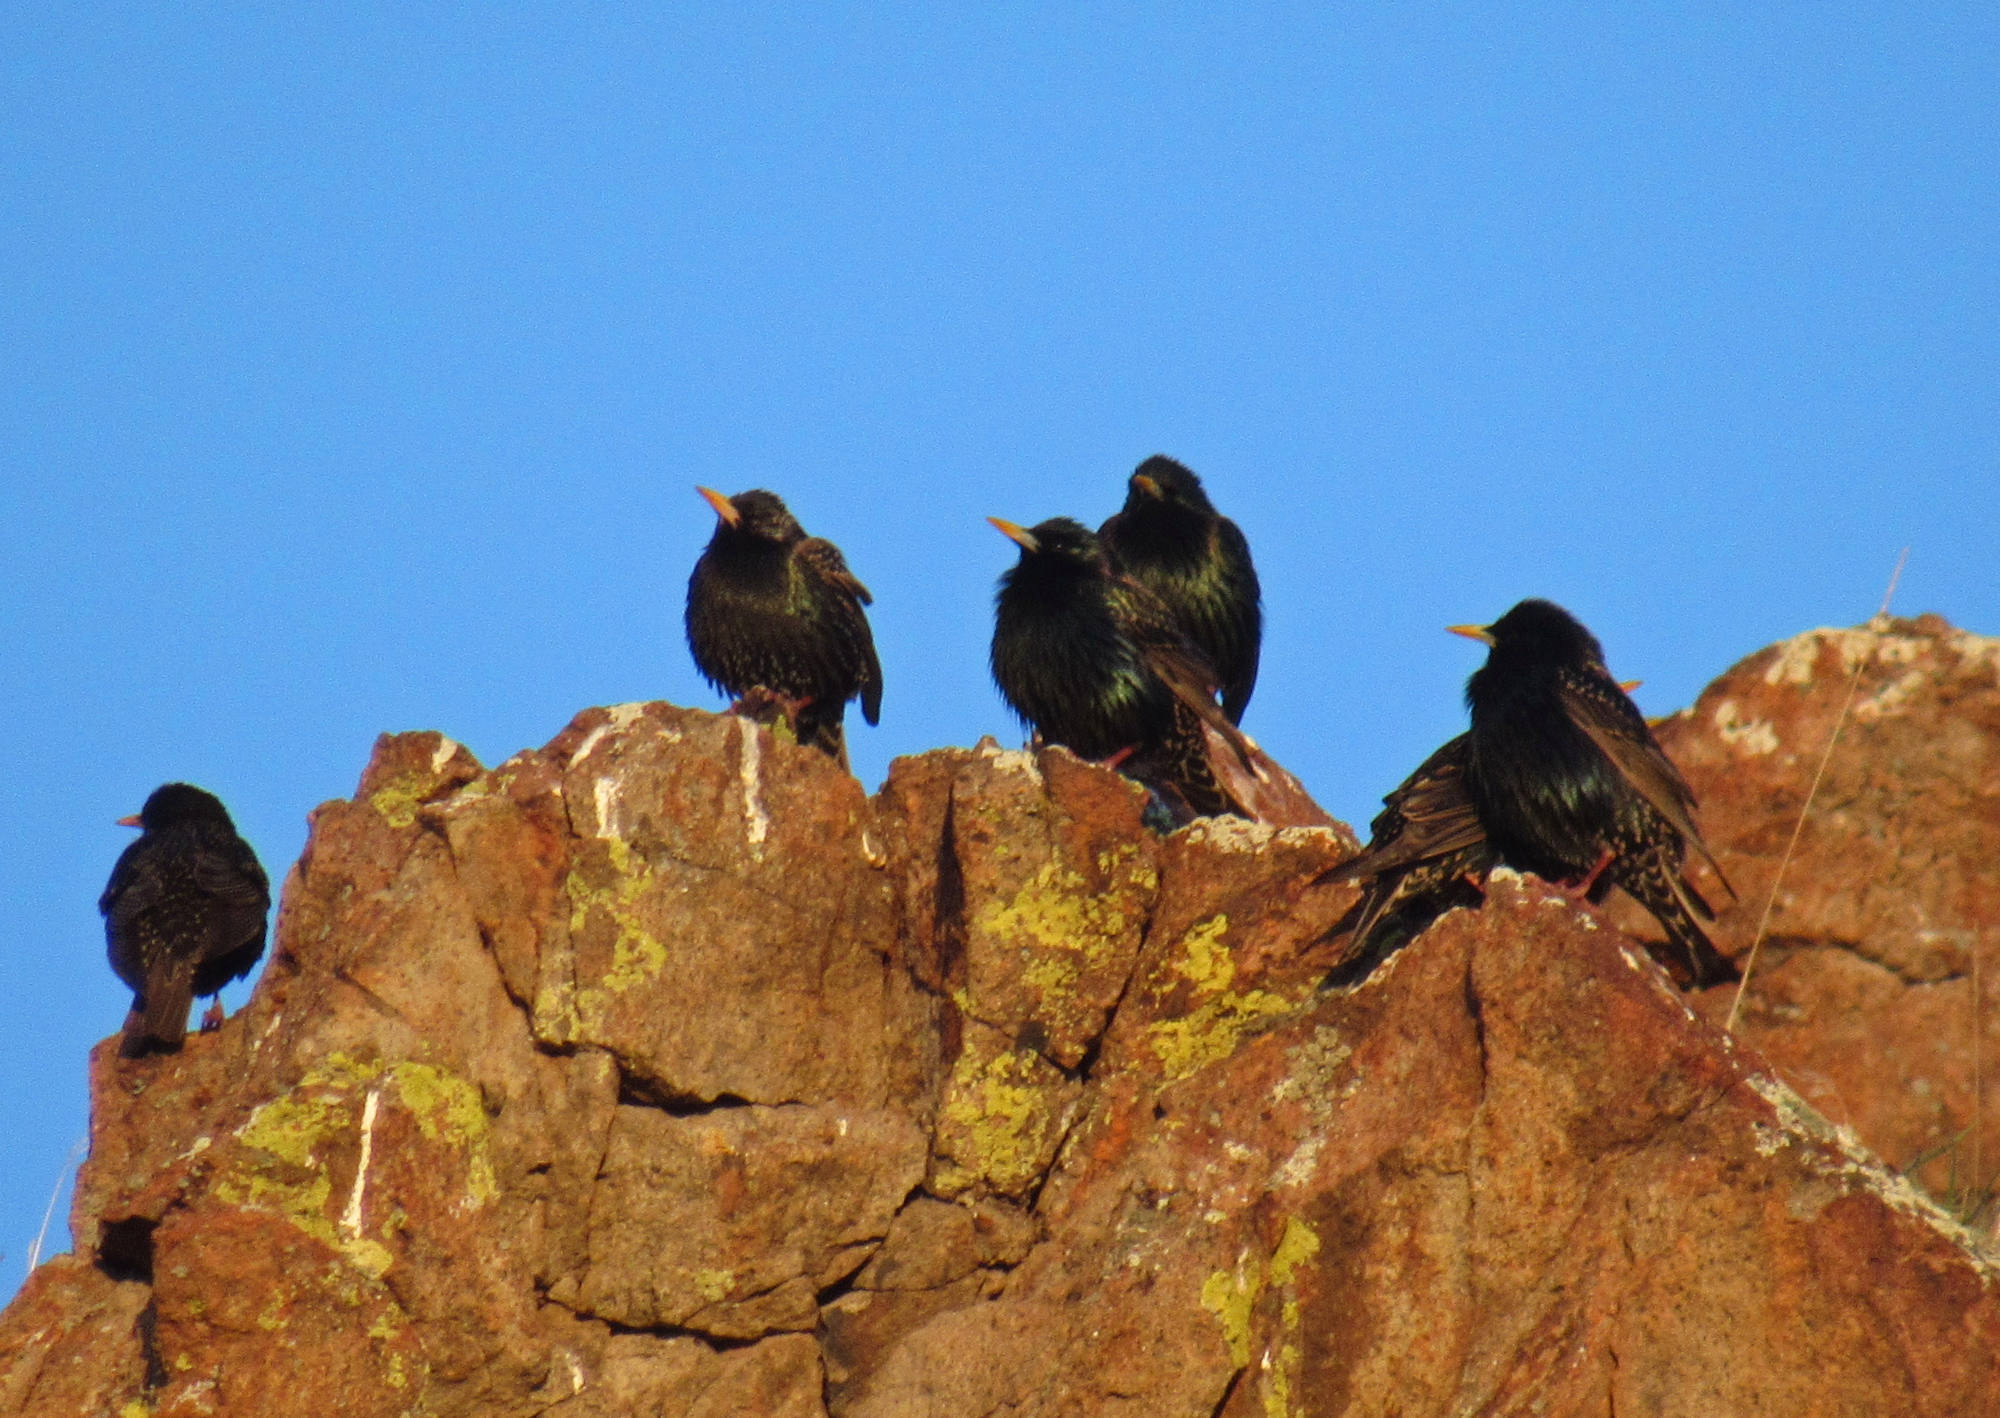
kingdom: Animalia
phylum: Chordata
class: Aves
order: Passeriformes
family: Sturnidae
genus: Sturnus
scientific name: Sturnus vulgaris
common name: Common starling
